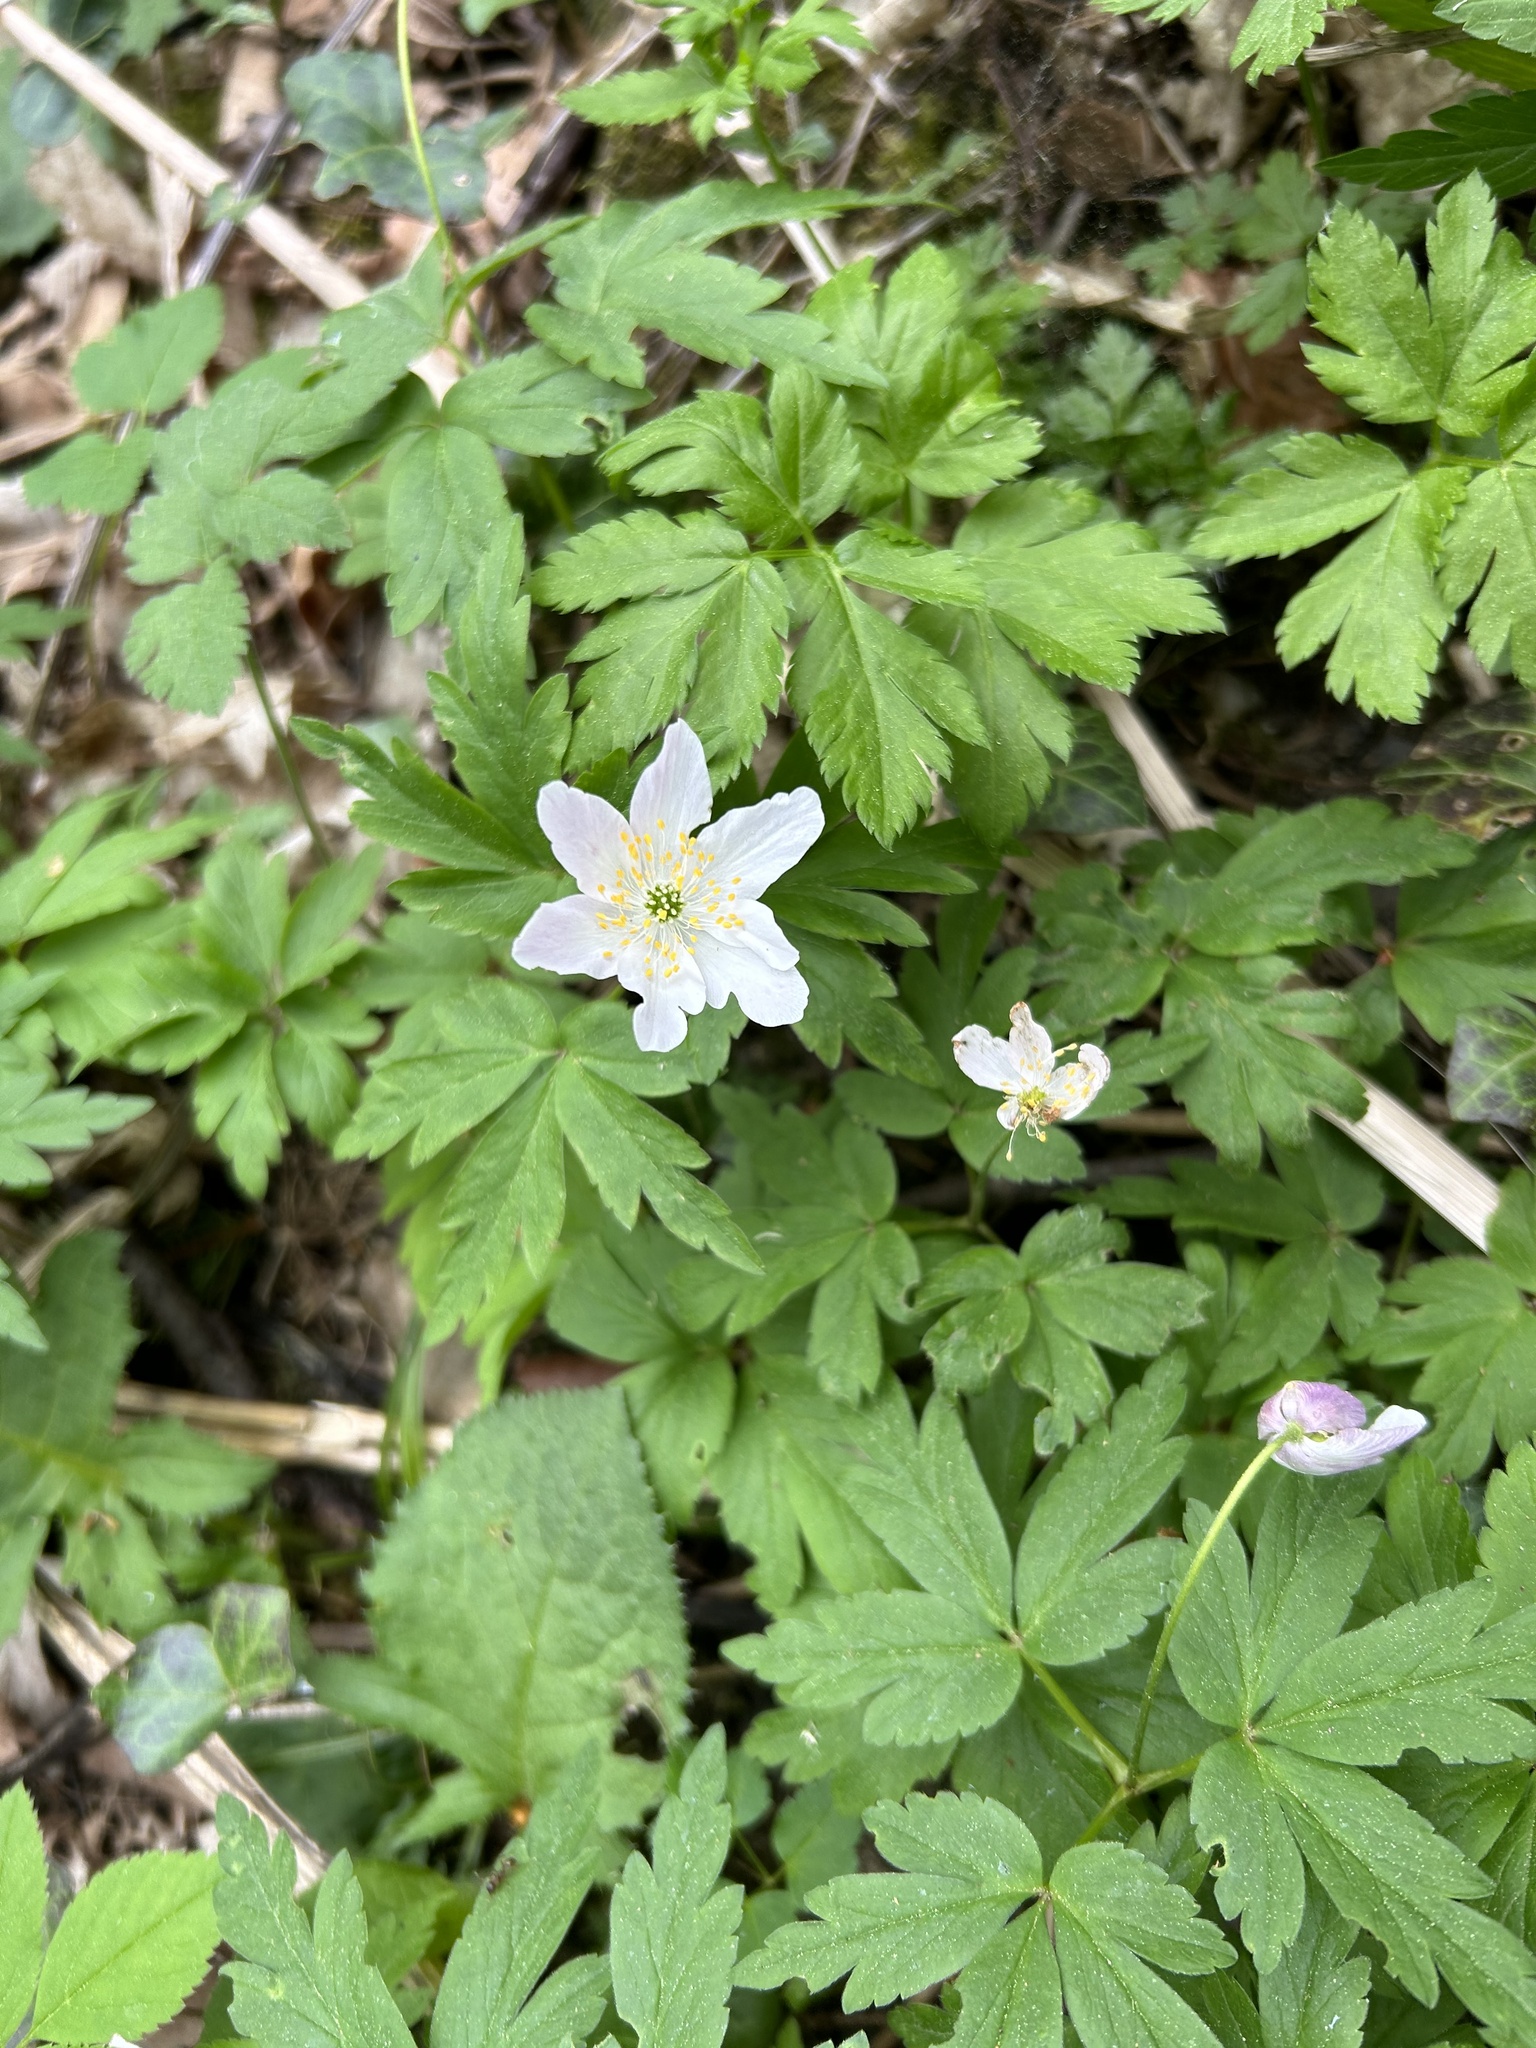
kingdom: Plantae
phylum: Tracheophyta
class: Magnoliopsida
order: Ranunculales
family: Ranunculaceae
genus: Anemone
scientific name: Anemone nemorosa
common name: Wood anemone
